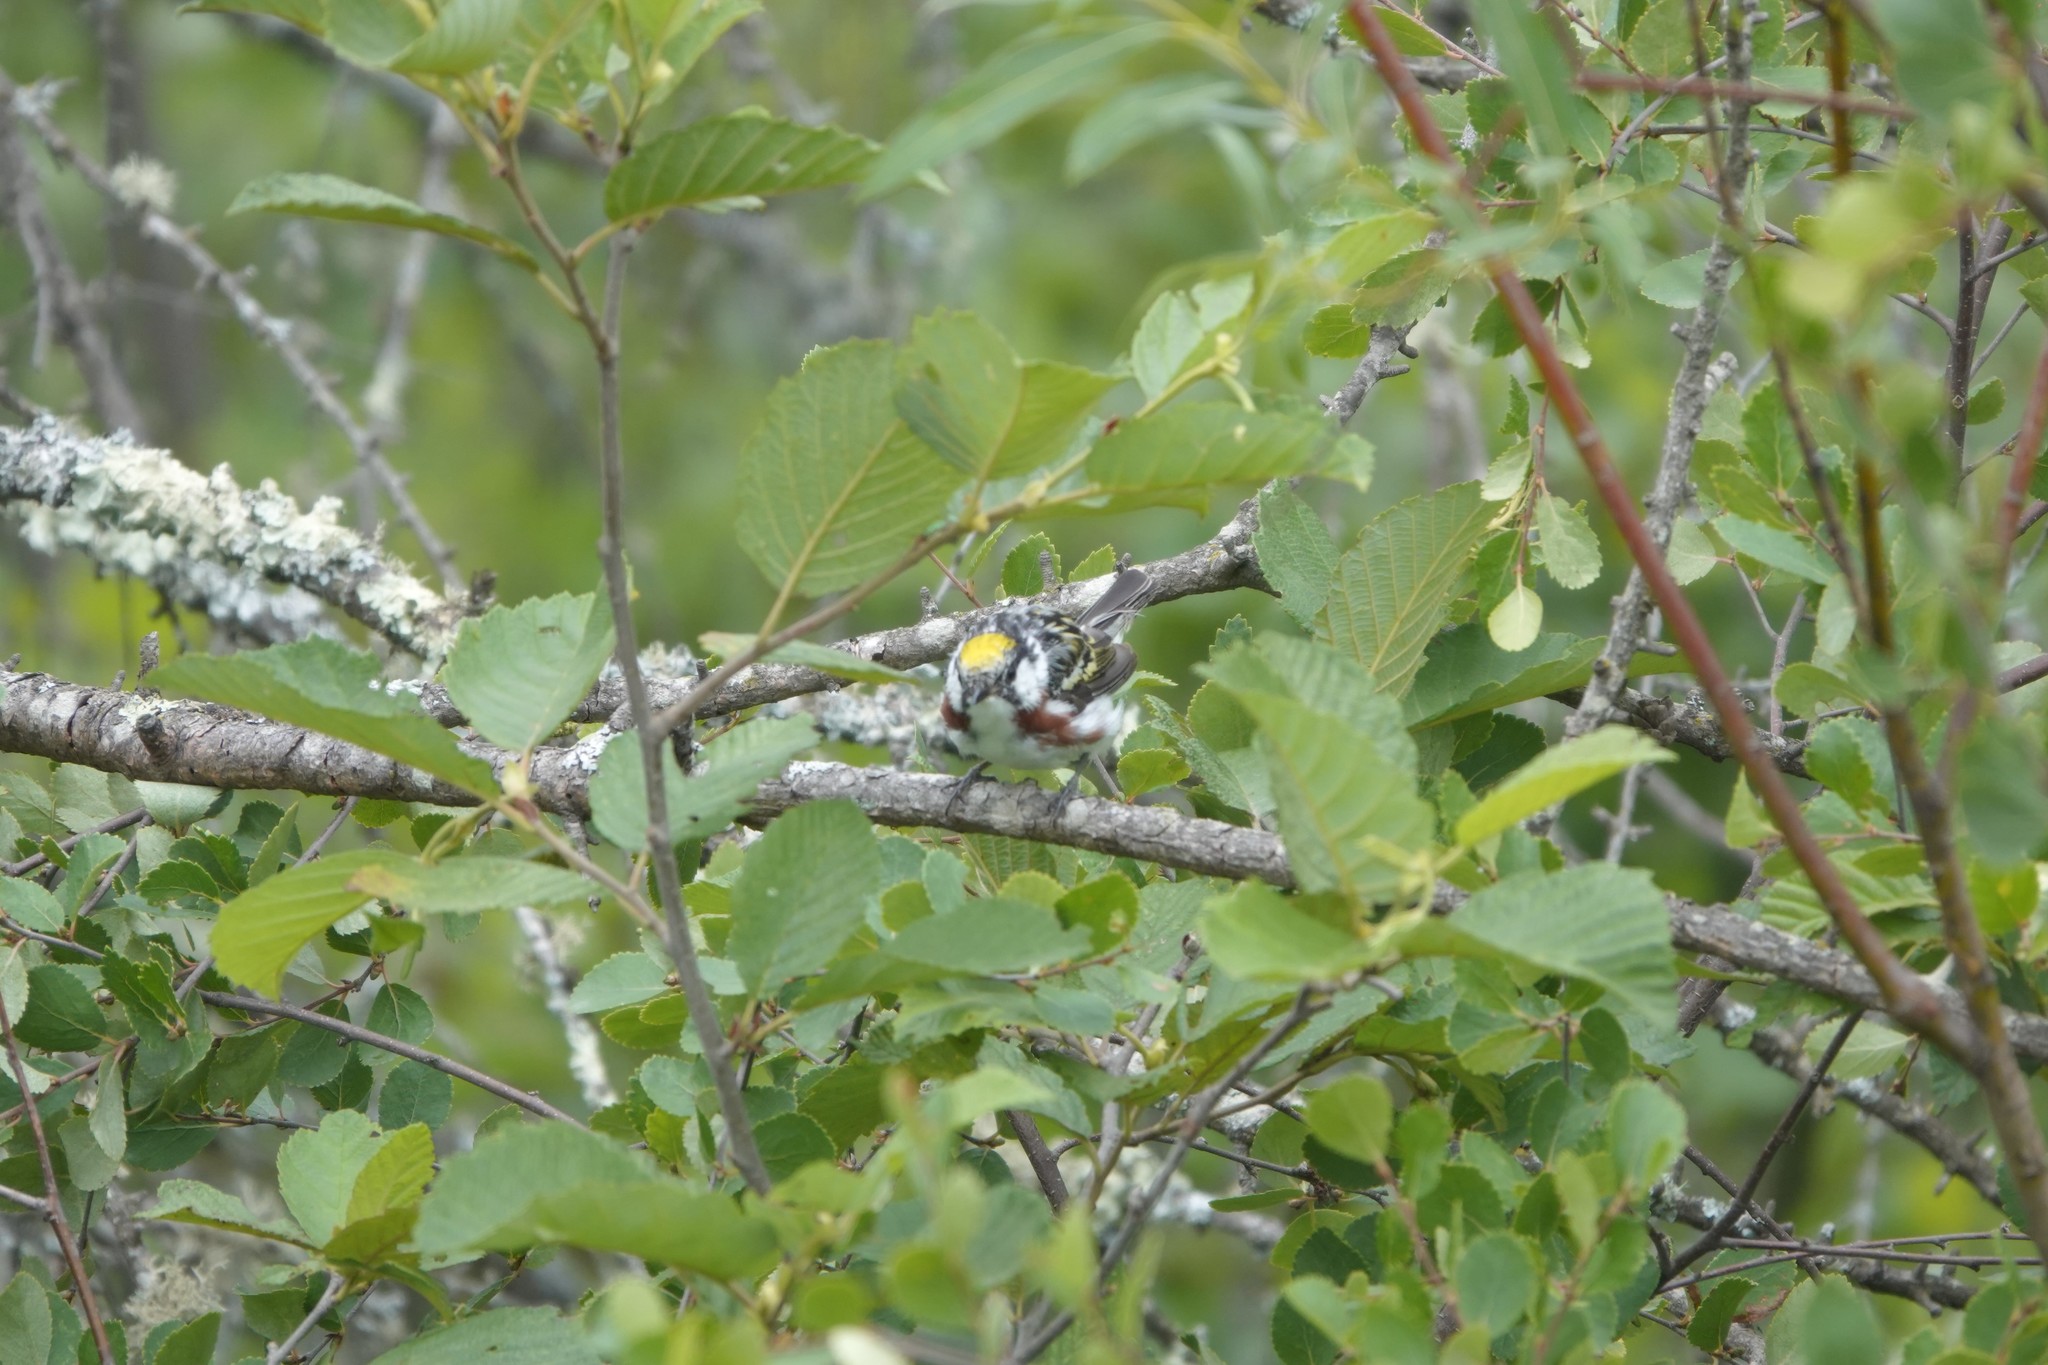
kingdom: Animalia
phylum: Chordata
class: Aves
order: Passeriformes
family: Parulidae
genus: Setophaga
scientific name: Setophaga pensylvanica
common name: Chestnut-sided warbler
